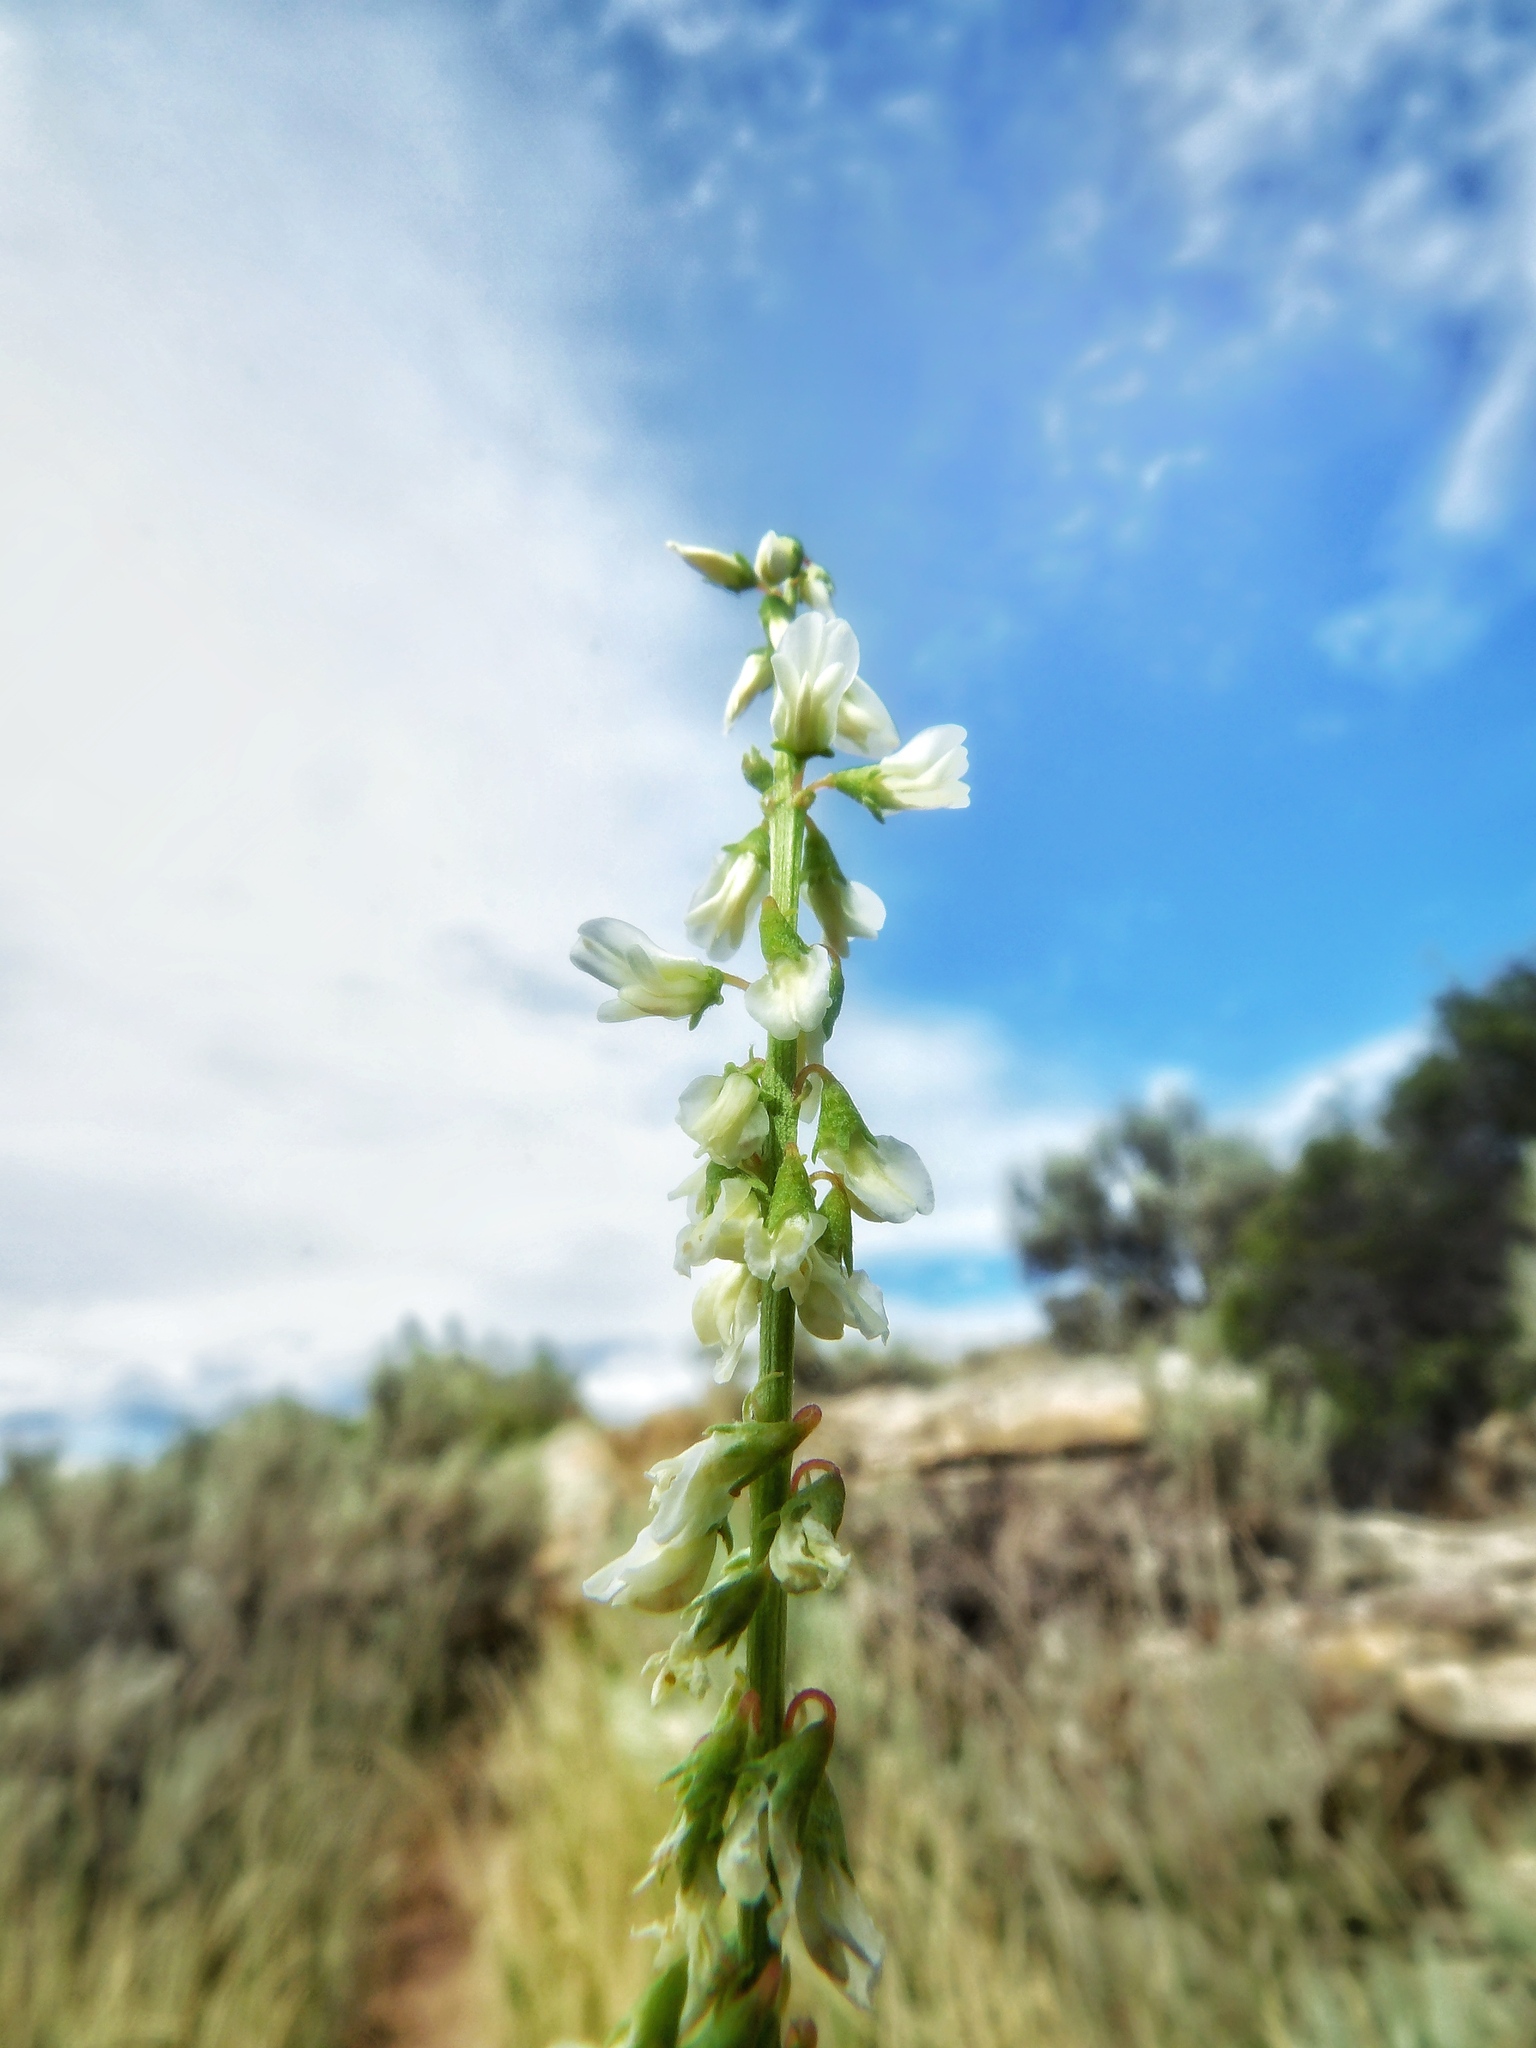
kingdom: Plantae
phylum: Tracheophyta
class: Magnoliopsida
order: Fabales
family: Fabaceae
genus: Melilotus
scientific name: Melilotus albus
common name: White melilot
